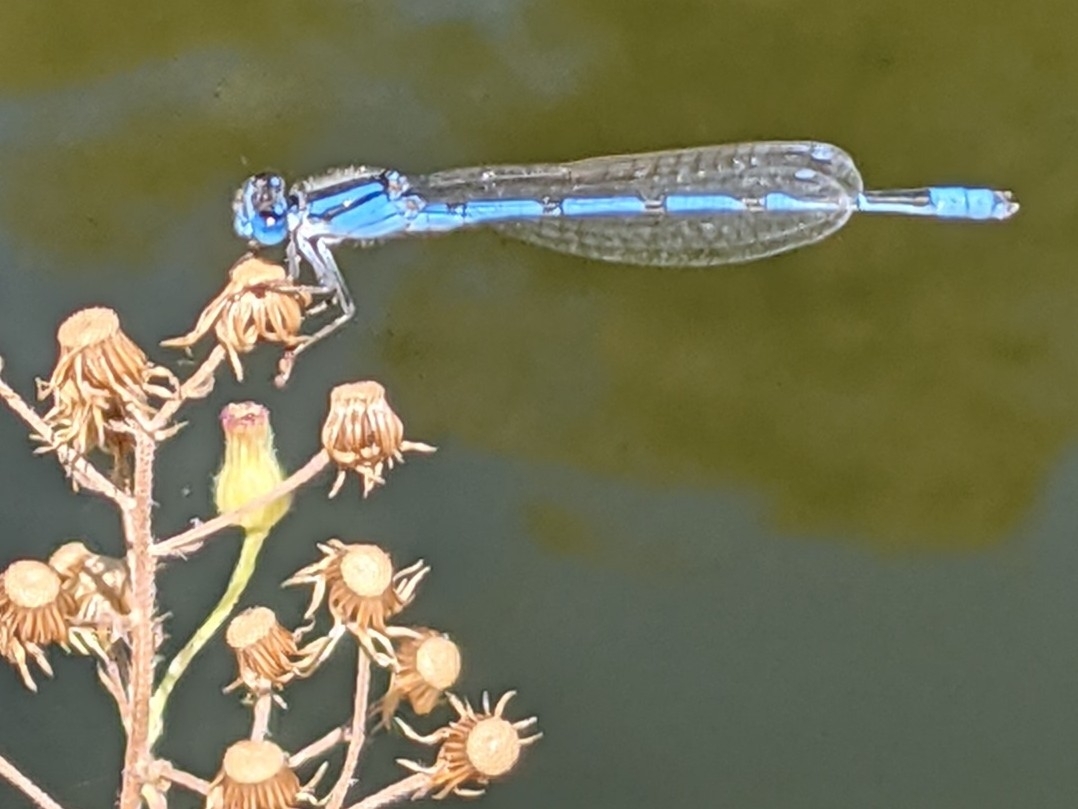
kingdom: Animalia
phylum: Arthropoda
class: Insecta
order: Odonata
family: Coenagrionidae
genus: Enallagma
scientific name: Enallagma civile
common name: Damselfly
